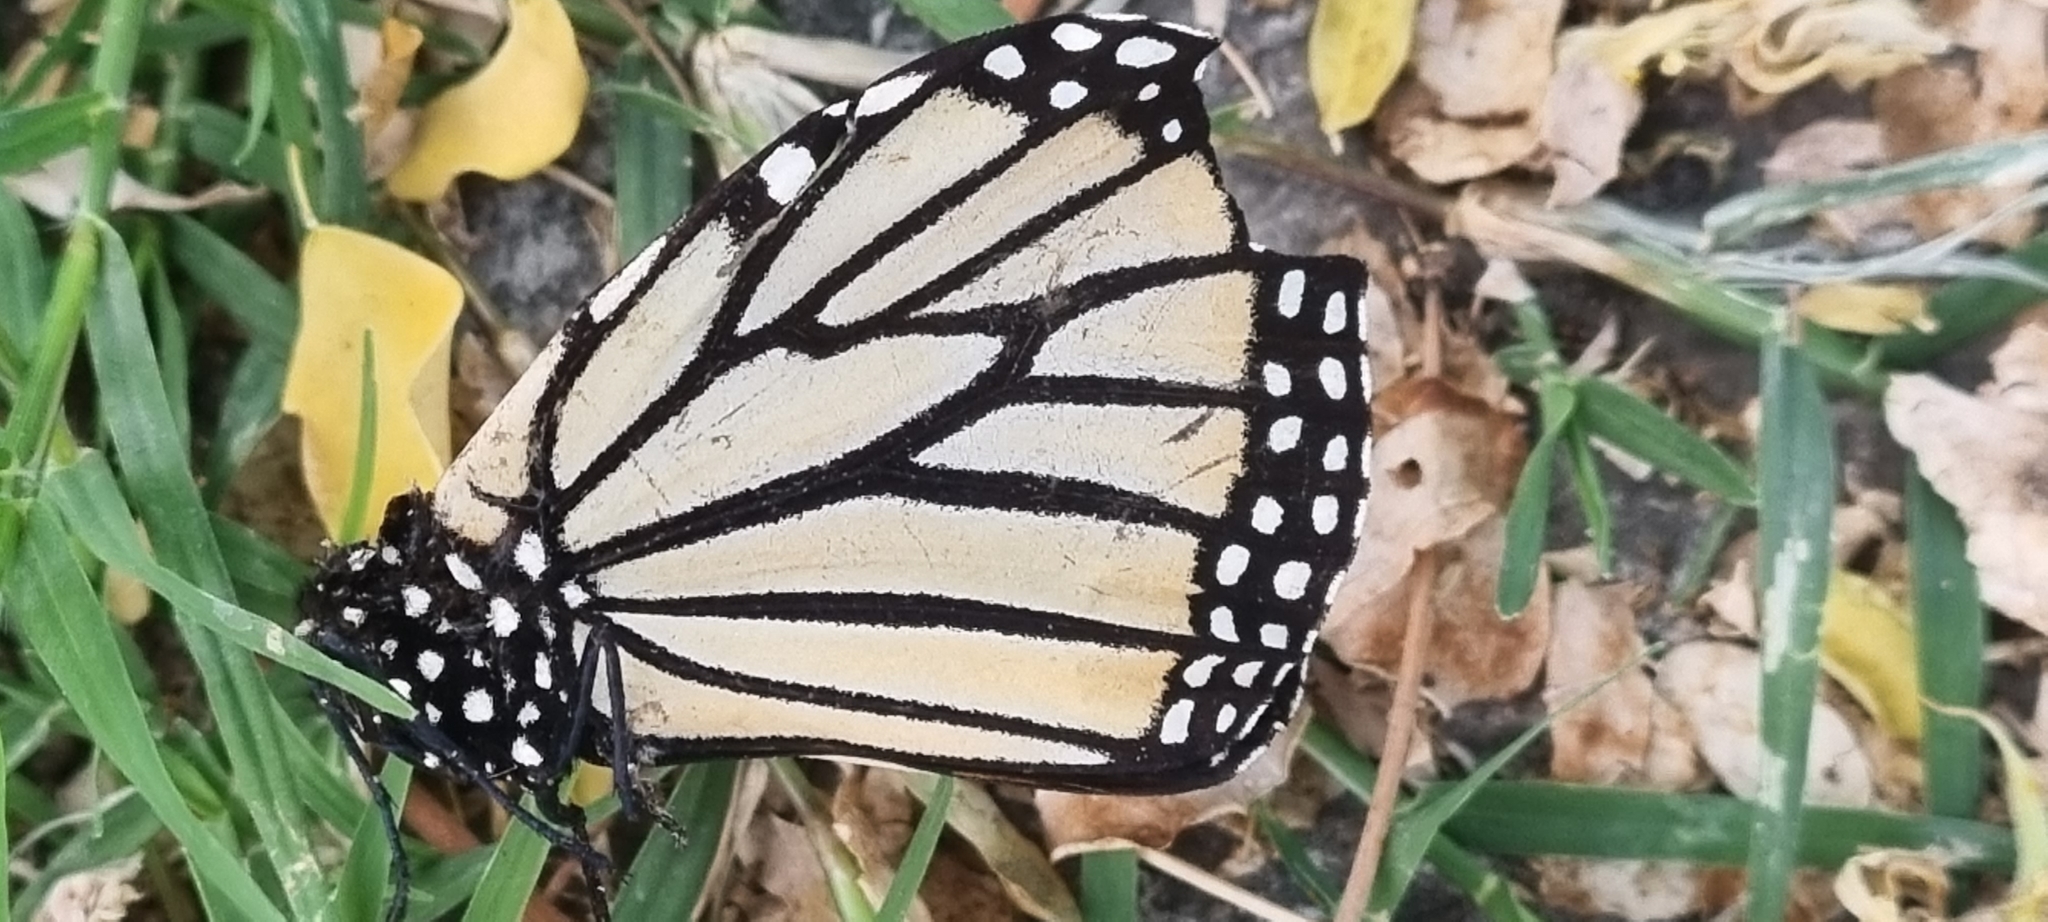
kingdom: Animalia
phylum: Arthropoda
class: Insecta
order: Lepidoptera
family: Nymphalidae
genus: Danaus
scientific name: Danaus plexippus
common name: Monarch
